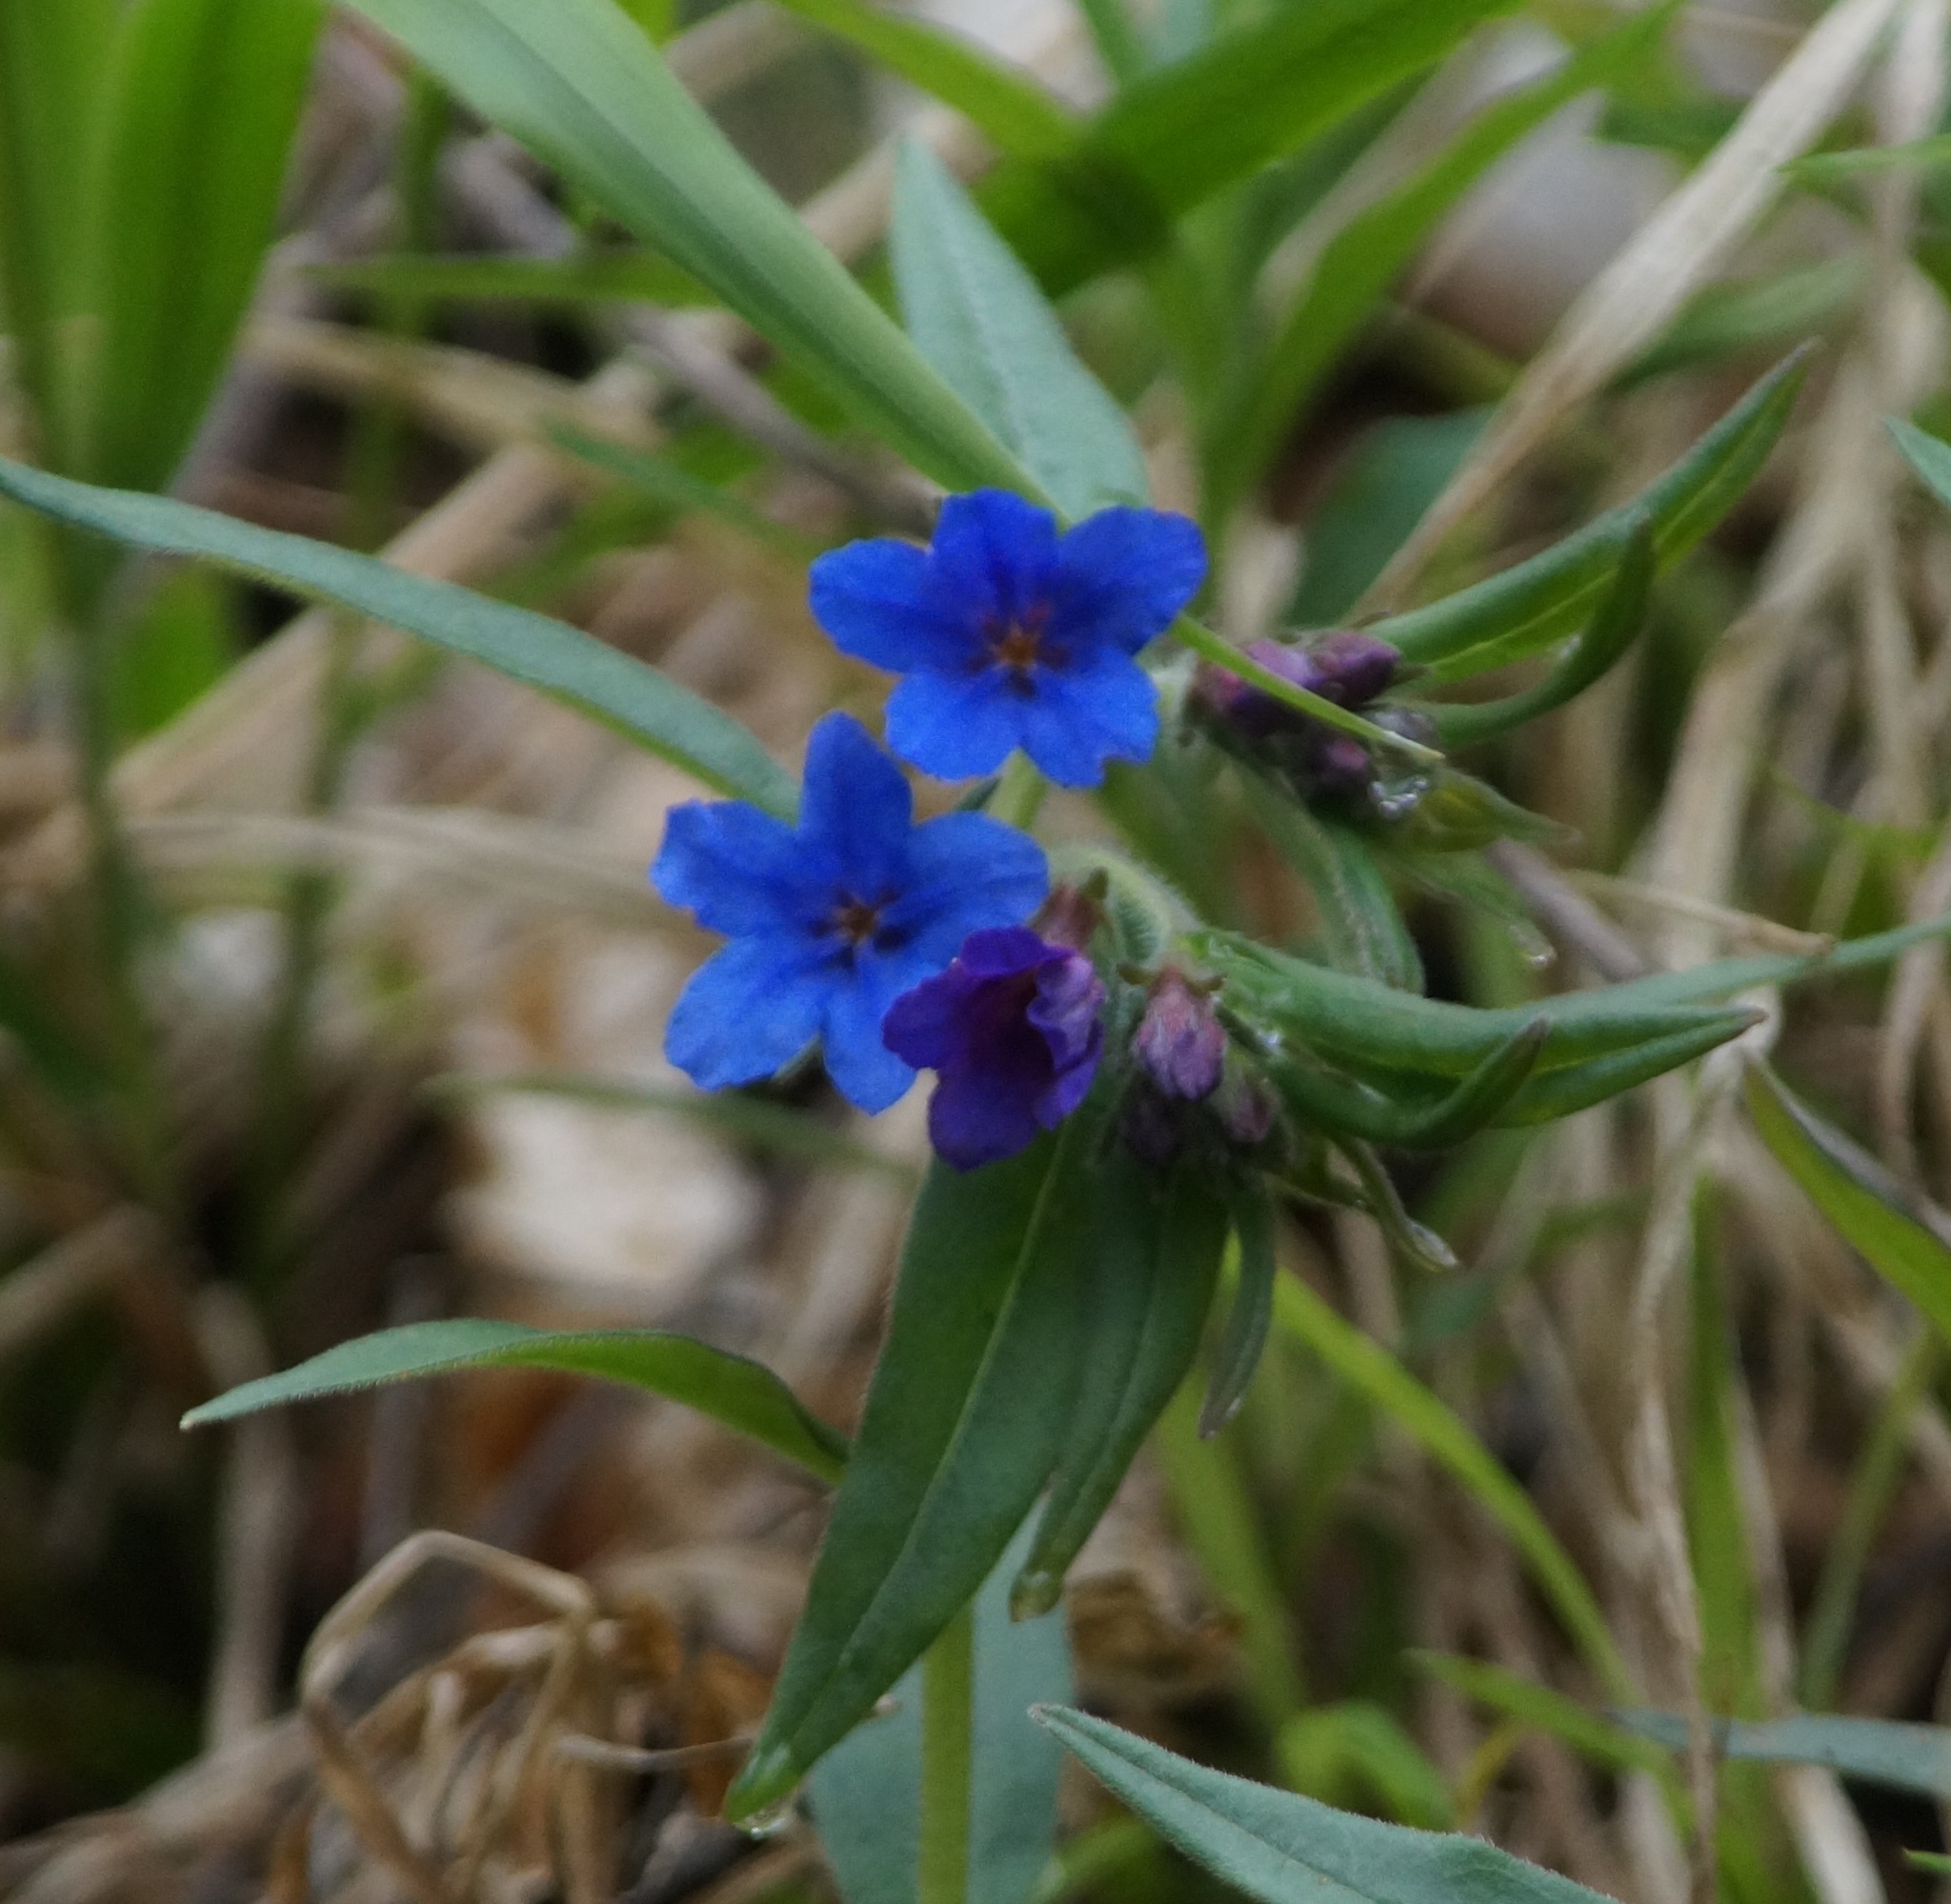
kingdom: Plantae
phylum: Tracheophyta
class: Magnoliopsida
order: Boraginales
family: Boraginaceae
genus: Aegonychon
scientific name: Aegonychon purpurocaeruleum
